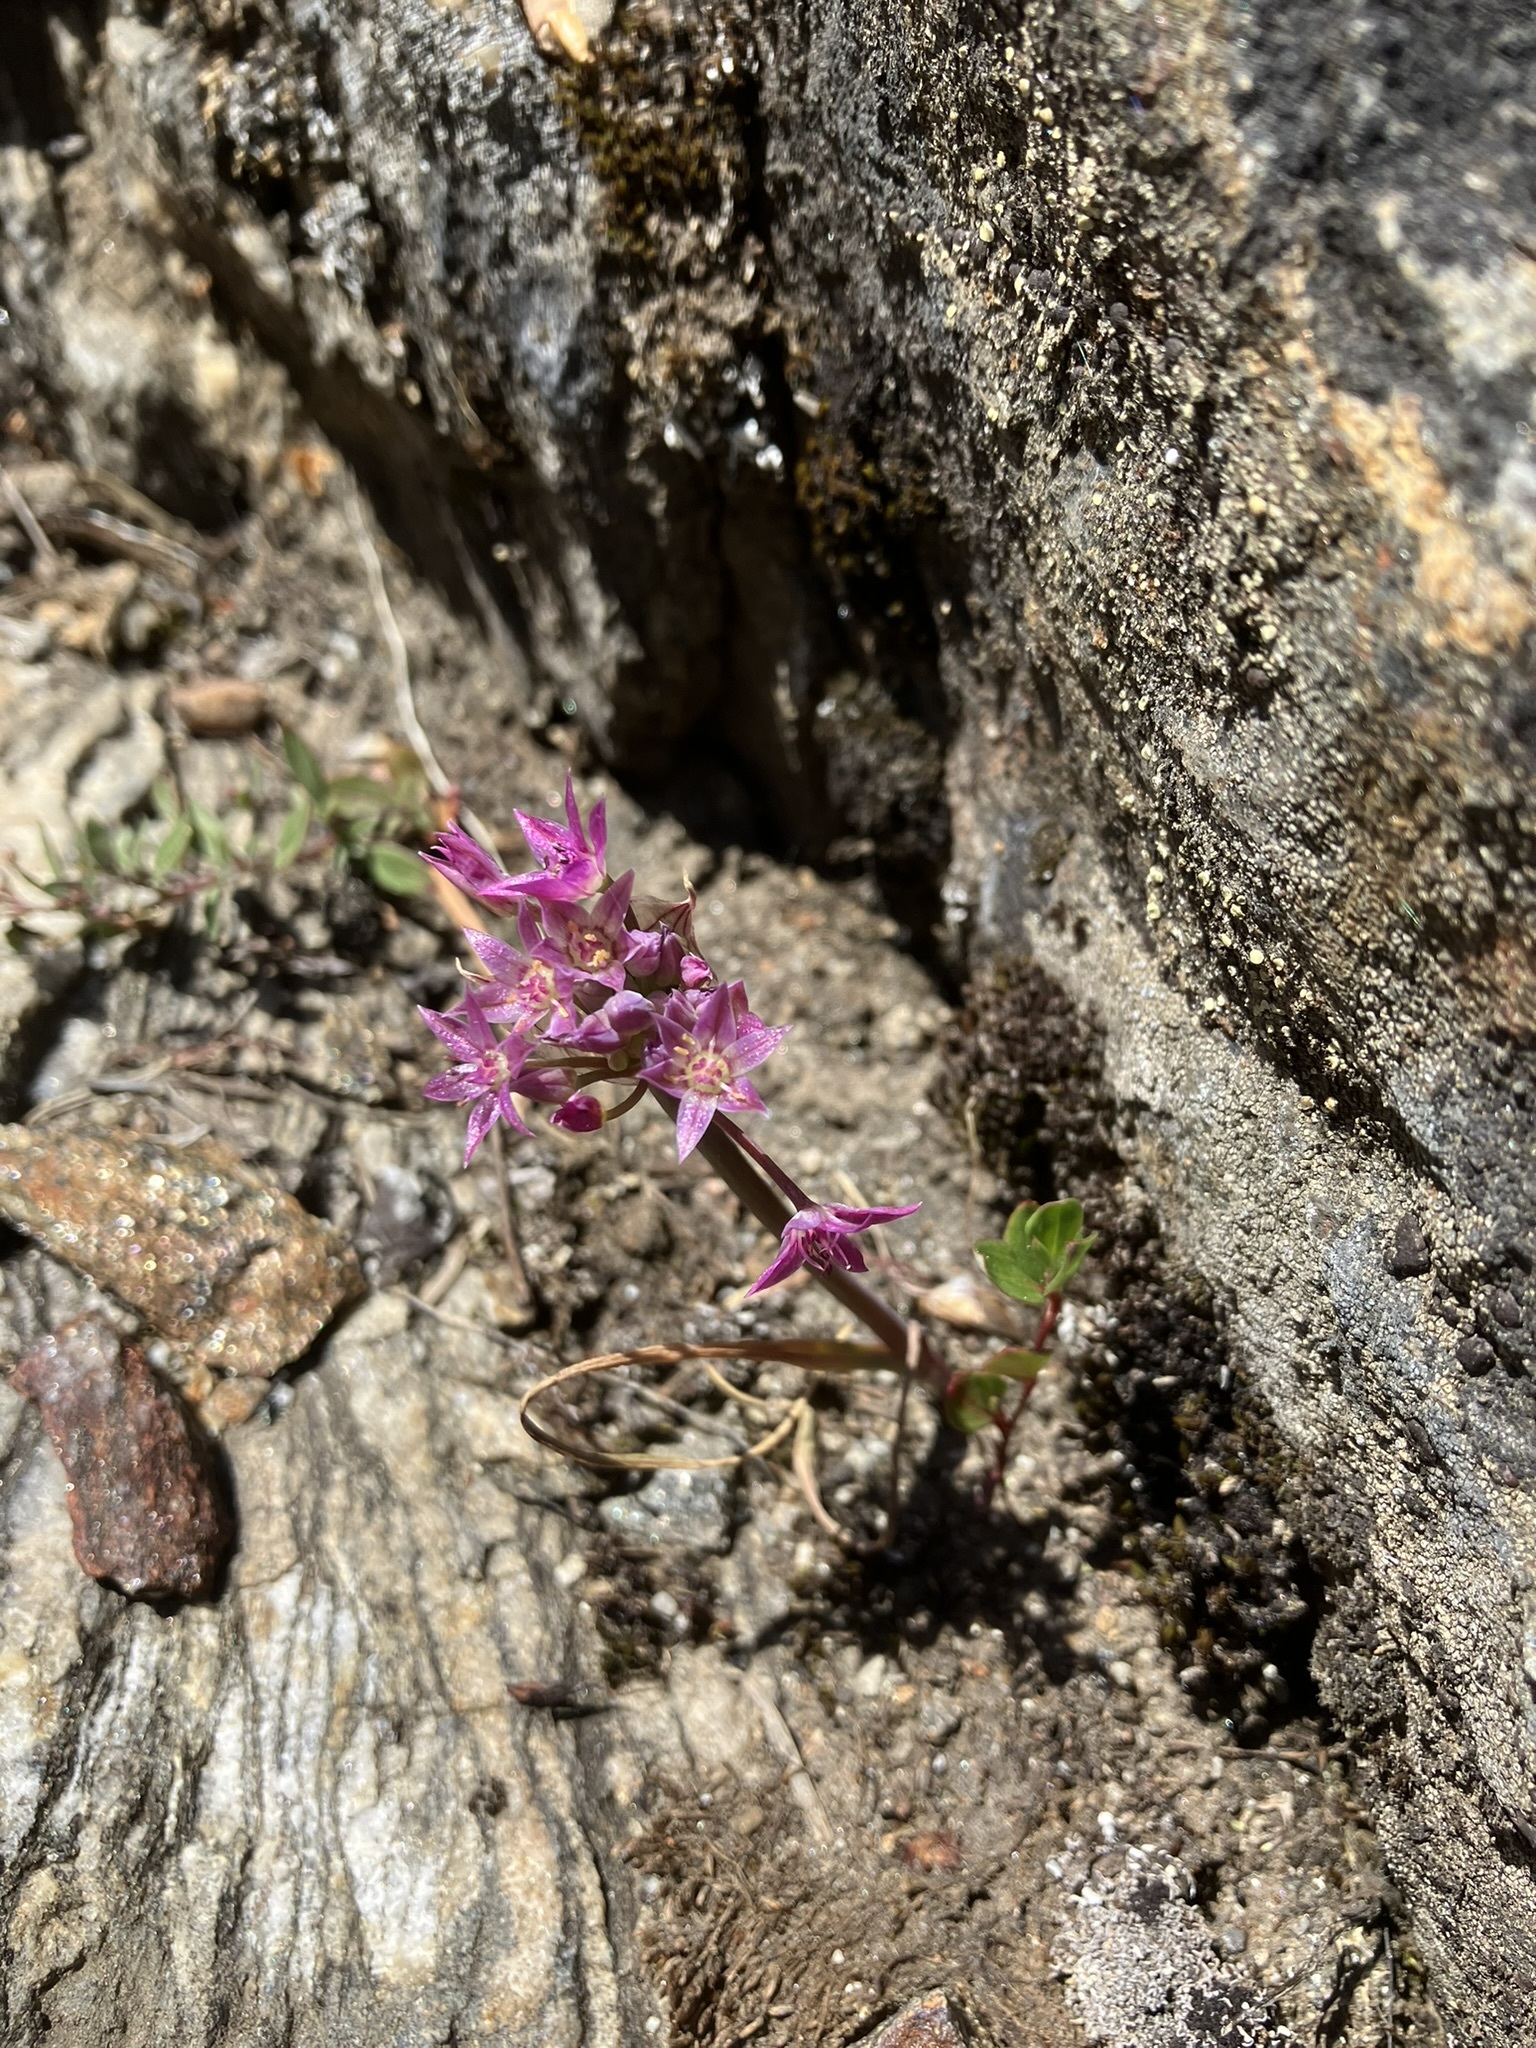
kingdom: Plantae
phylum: Tracheophyta
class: Liliopsida
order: Asparagales
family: Amaryllidaceae
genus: Allium
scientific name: Allium campanulatum
